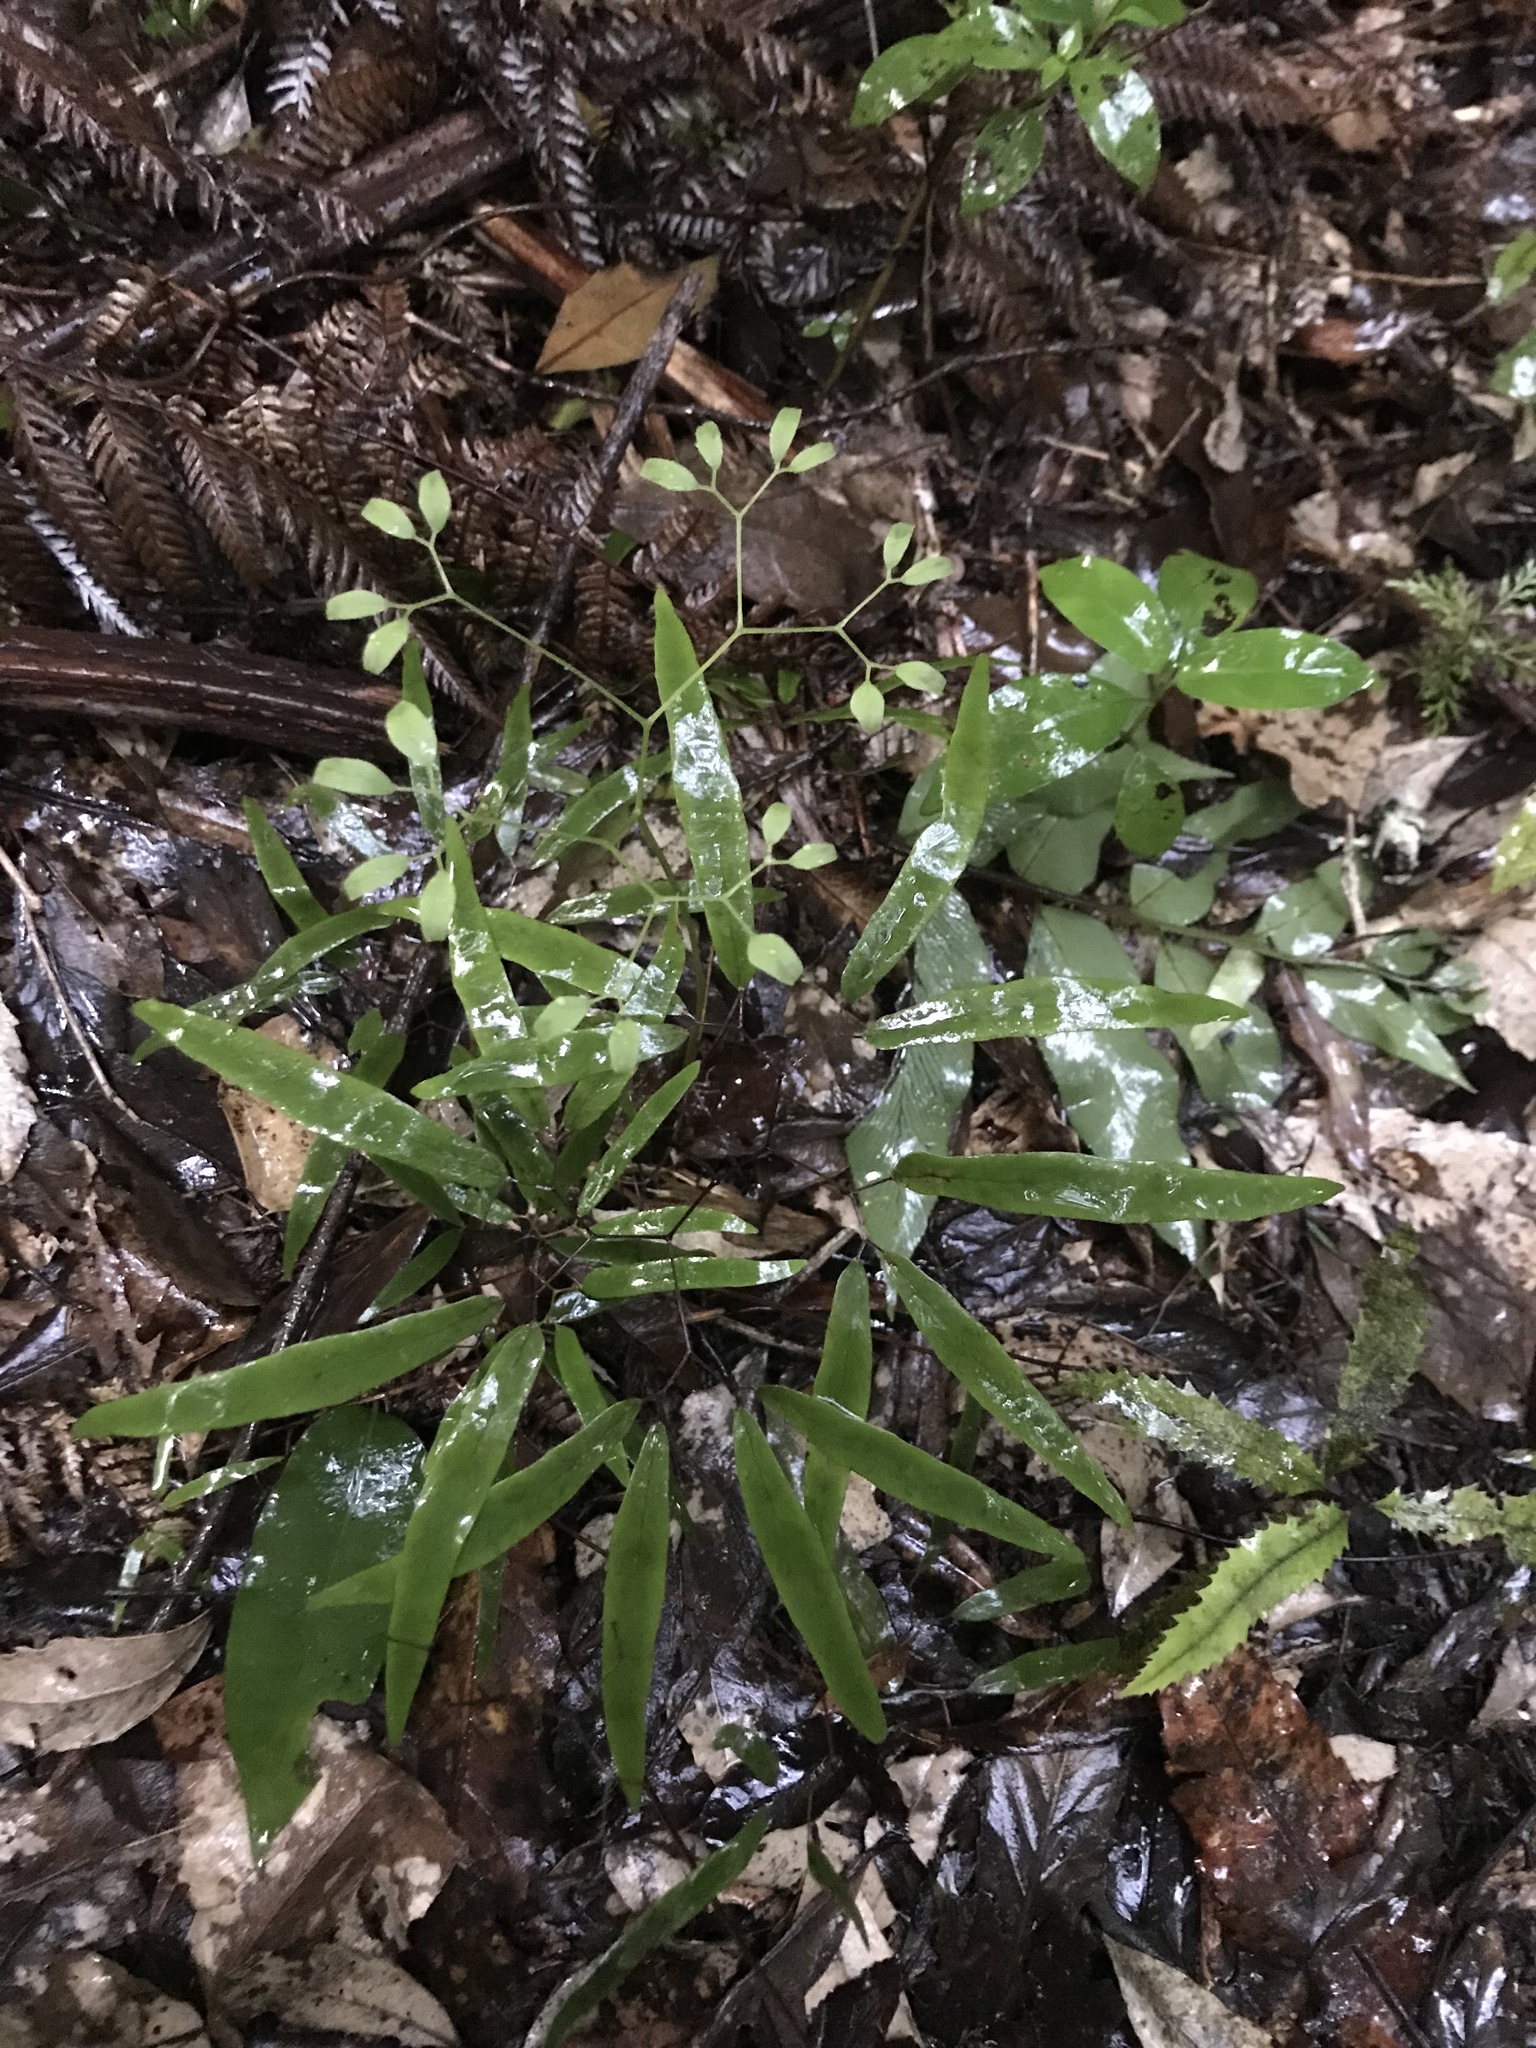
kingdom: Plantae
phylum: Tracheophyta
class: Polypodiopsida
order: Schizaeales
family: Lygodiaceae
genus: Lygodium
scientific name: Lygodium articulatum
